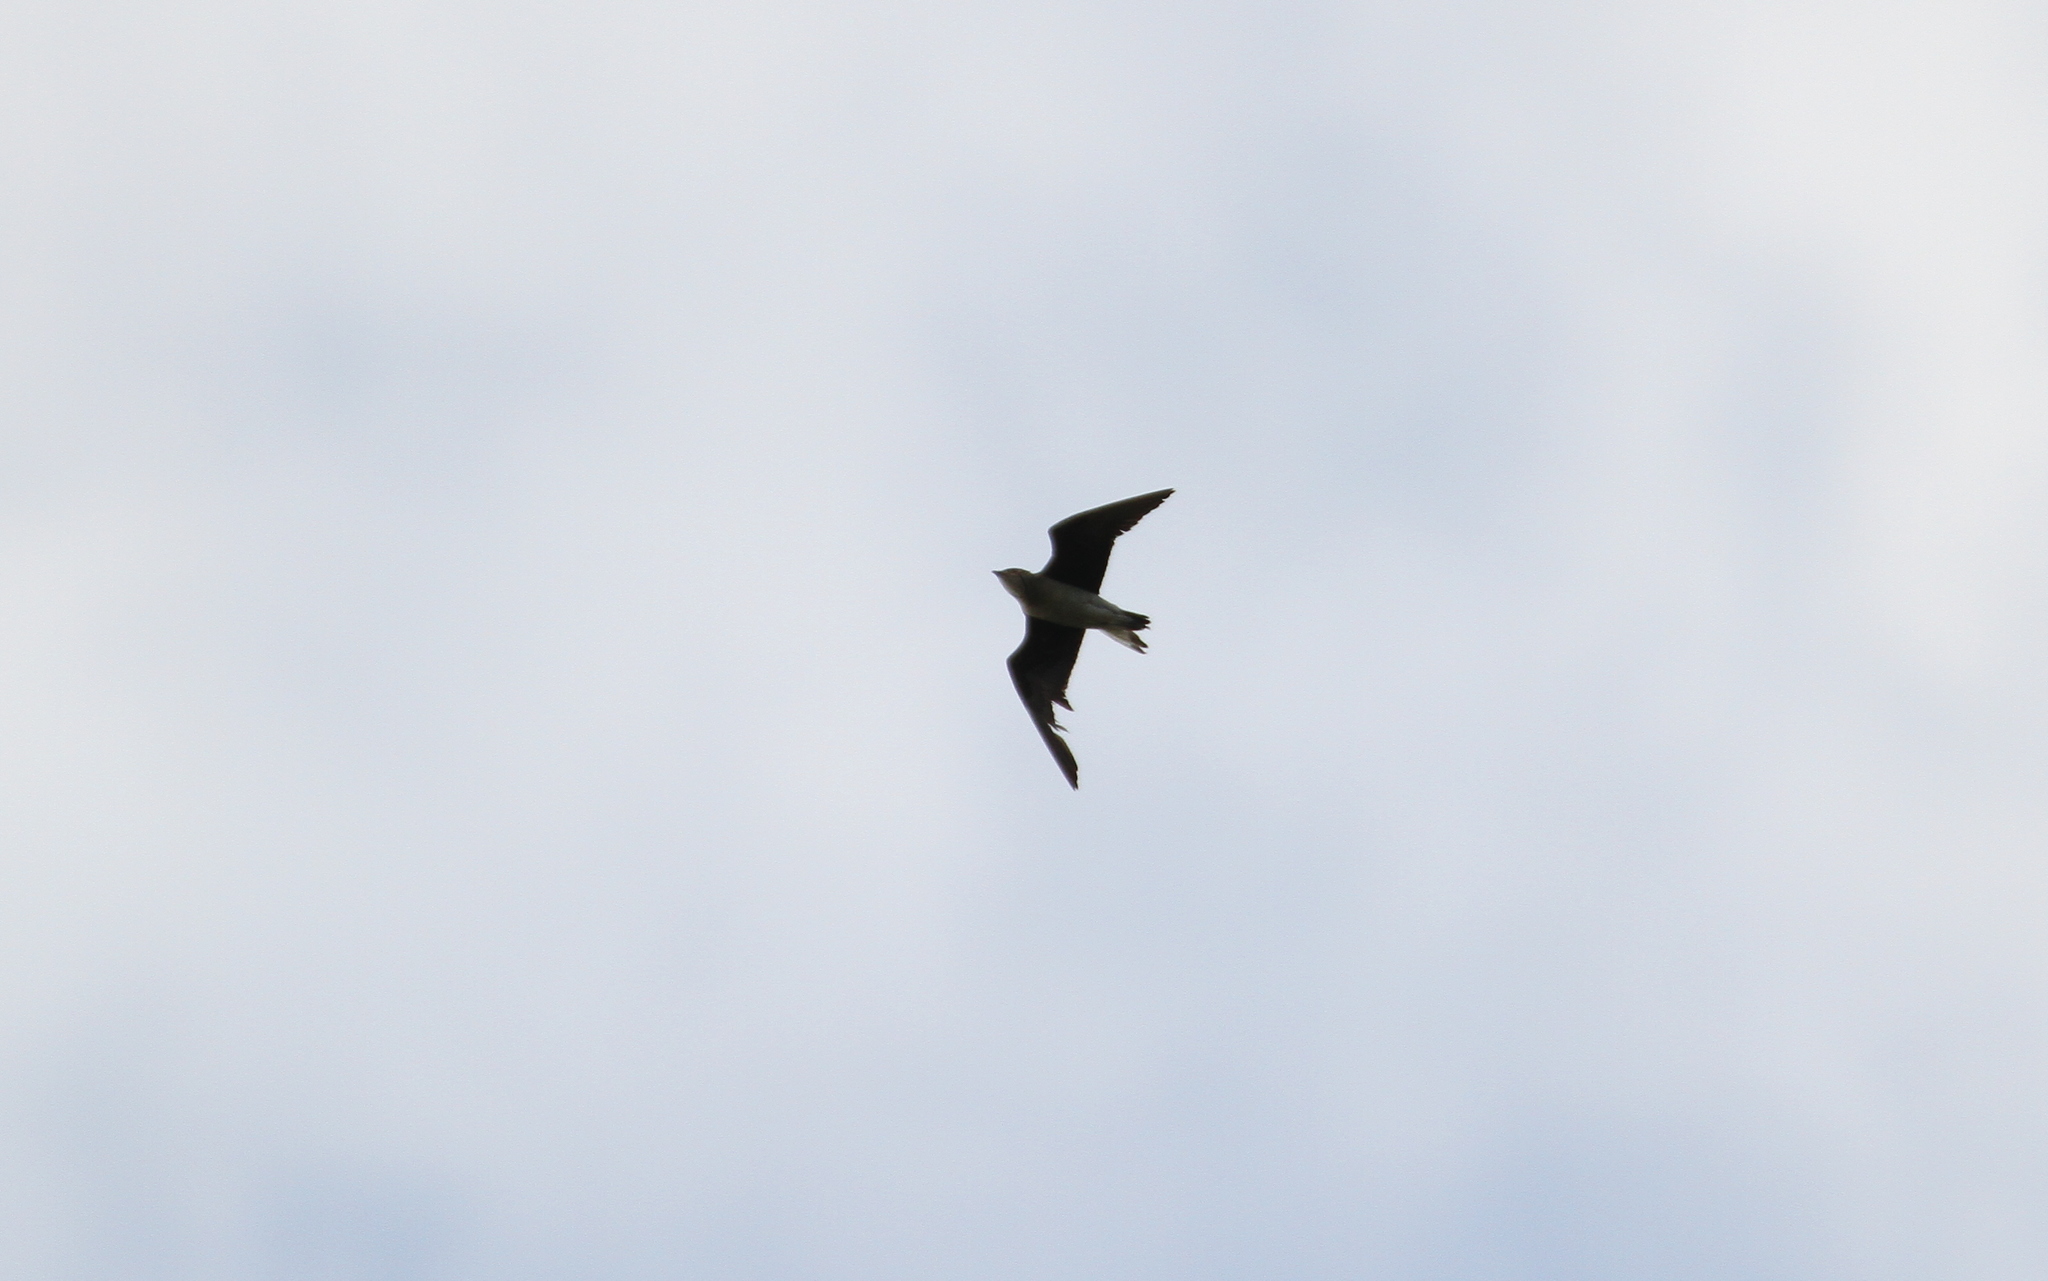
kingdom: Animalia
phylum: Chordata
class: Aves
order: Charadriiformes
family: Glareolidae
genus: Glareola
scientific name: Glareola nordmanni
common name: Black-winged pratincole
